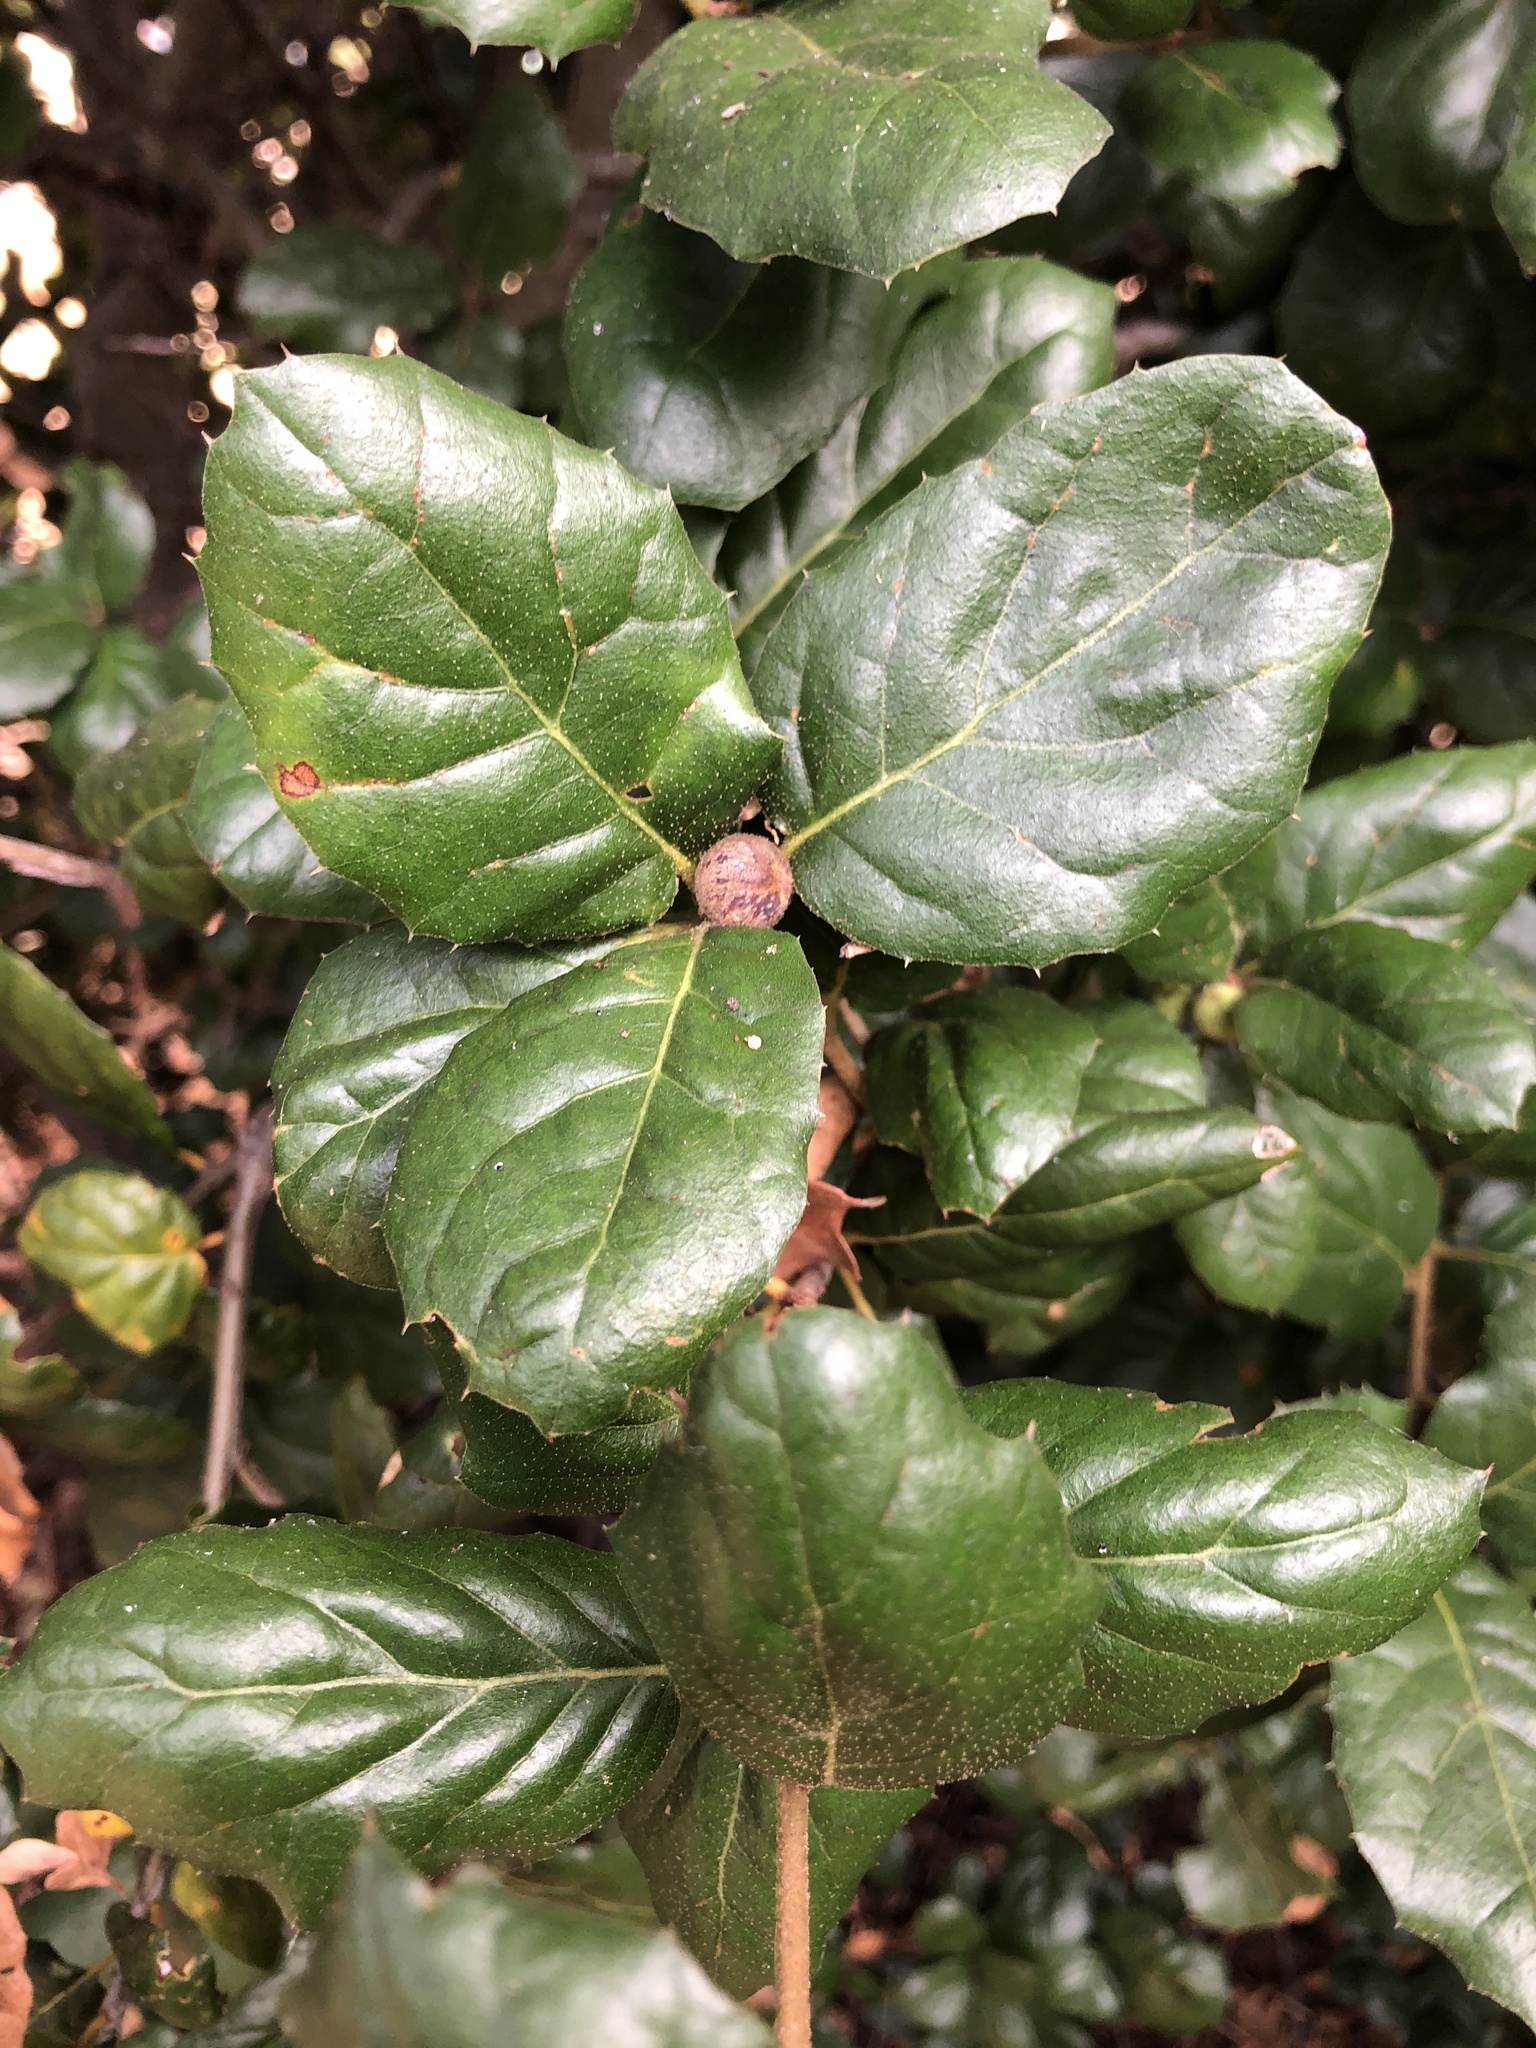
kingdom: Animalia
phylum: Arthropoda
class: Insecta
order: Hymenoptera
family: Cynipidae
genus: Callirhytis
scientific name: Callirhytis
